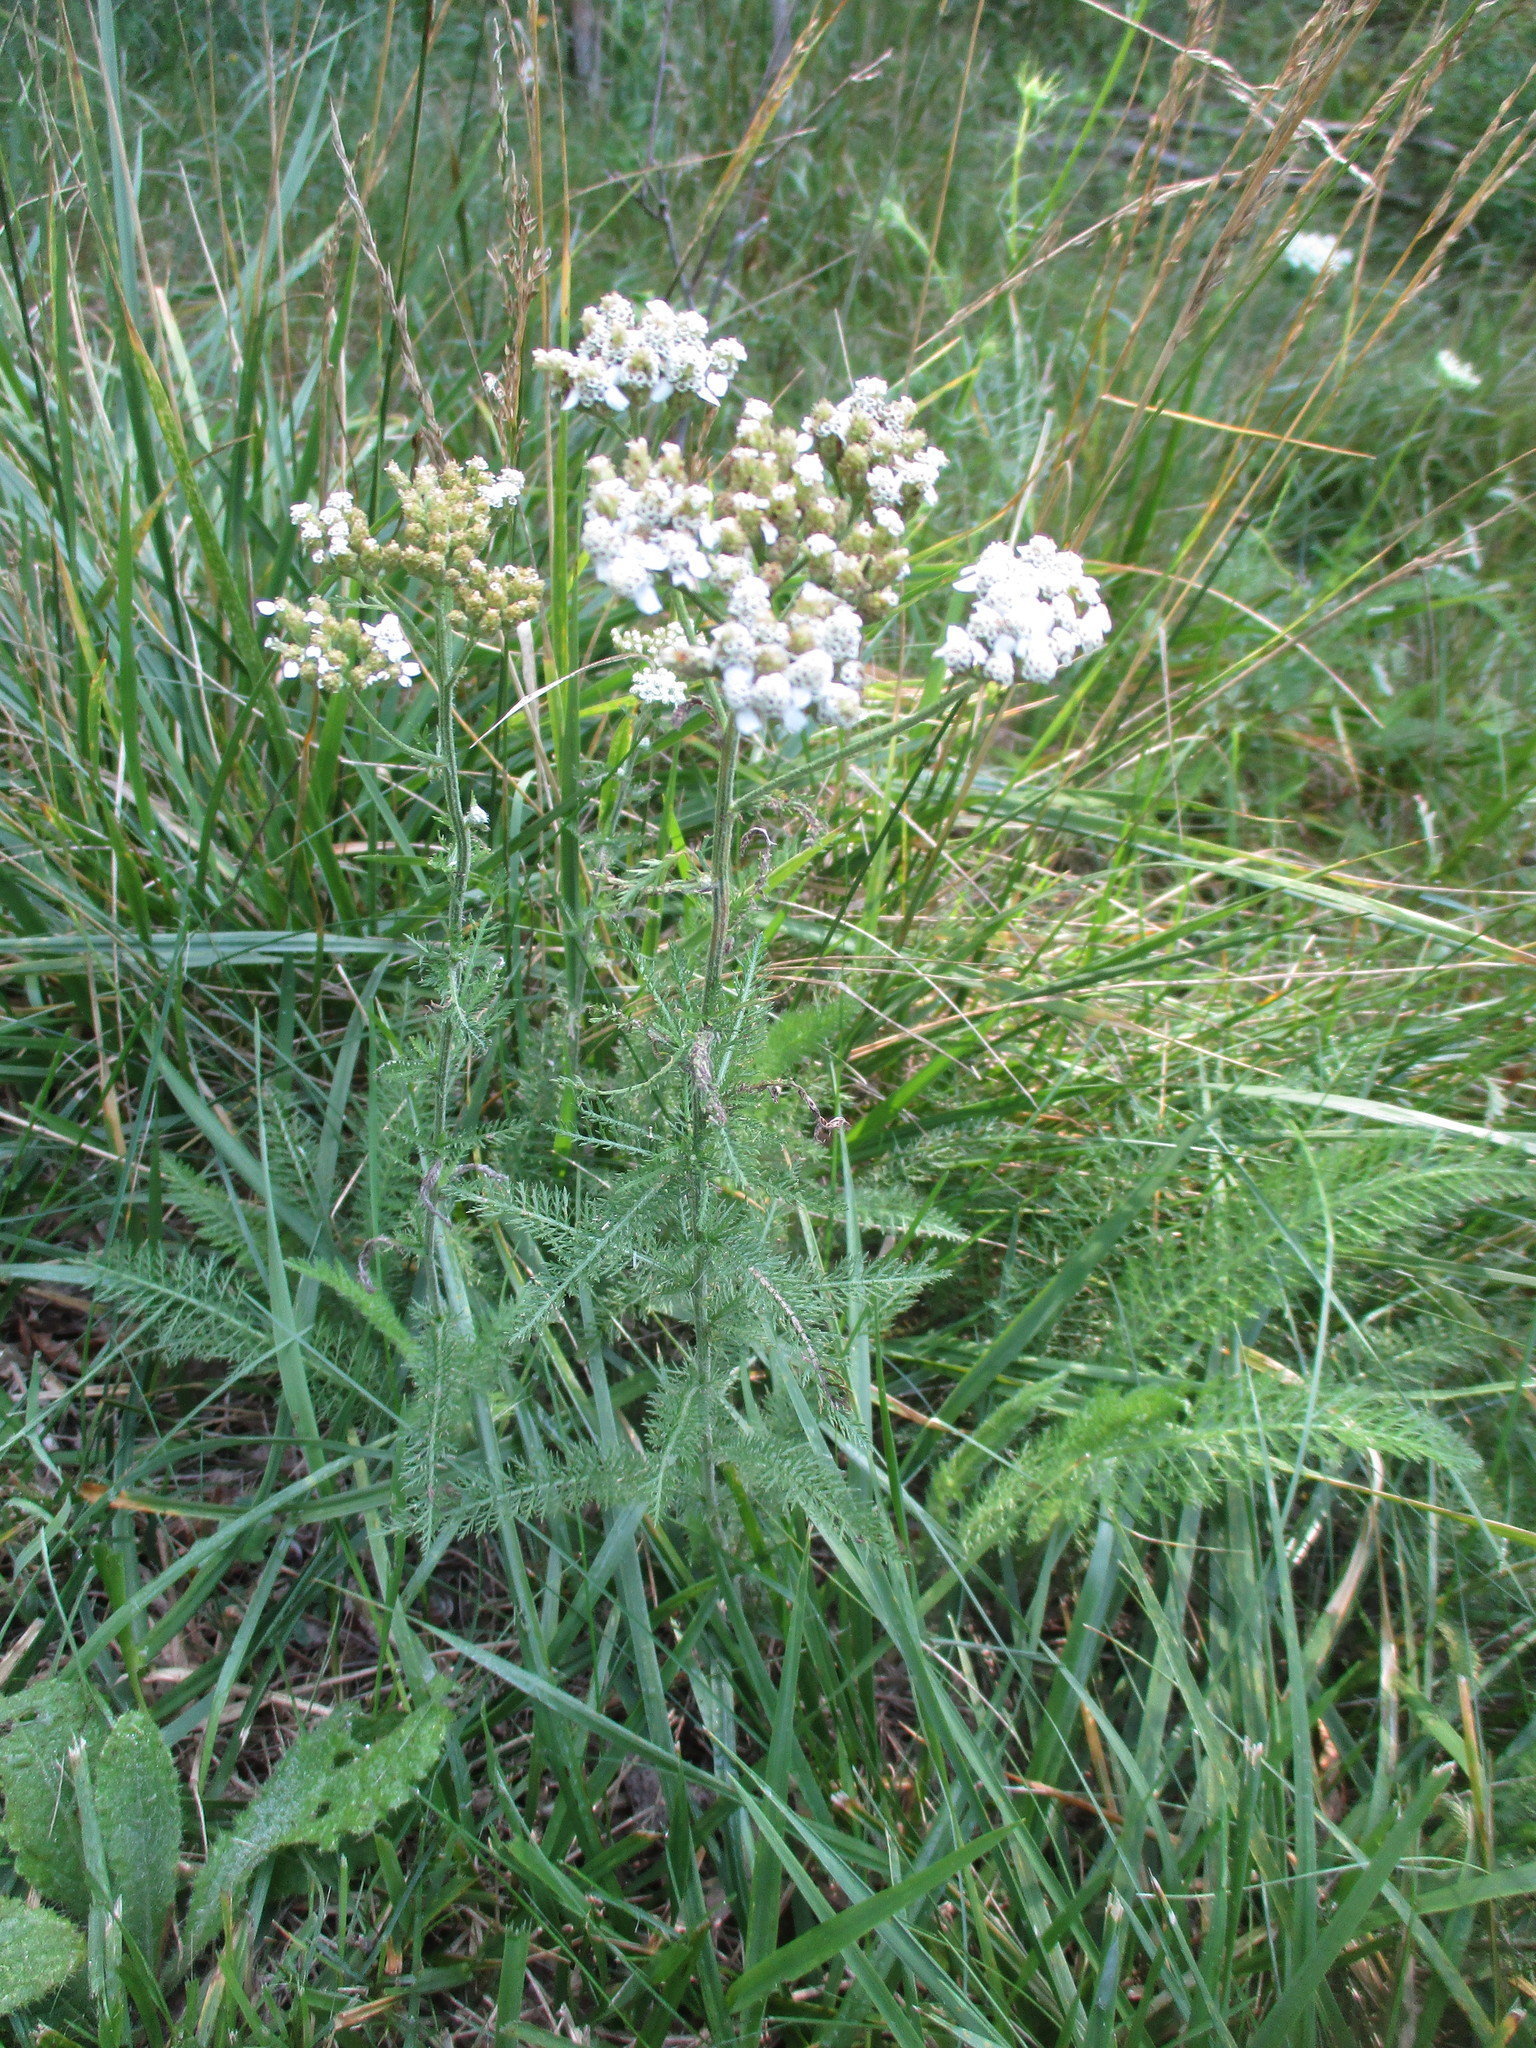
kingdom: Plantae
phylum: Tracheophyta
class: Magnoliopsida
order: Asterales
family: Asteraceae
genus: Achillea
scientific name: Achillea millefolium
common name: Yarrow
